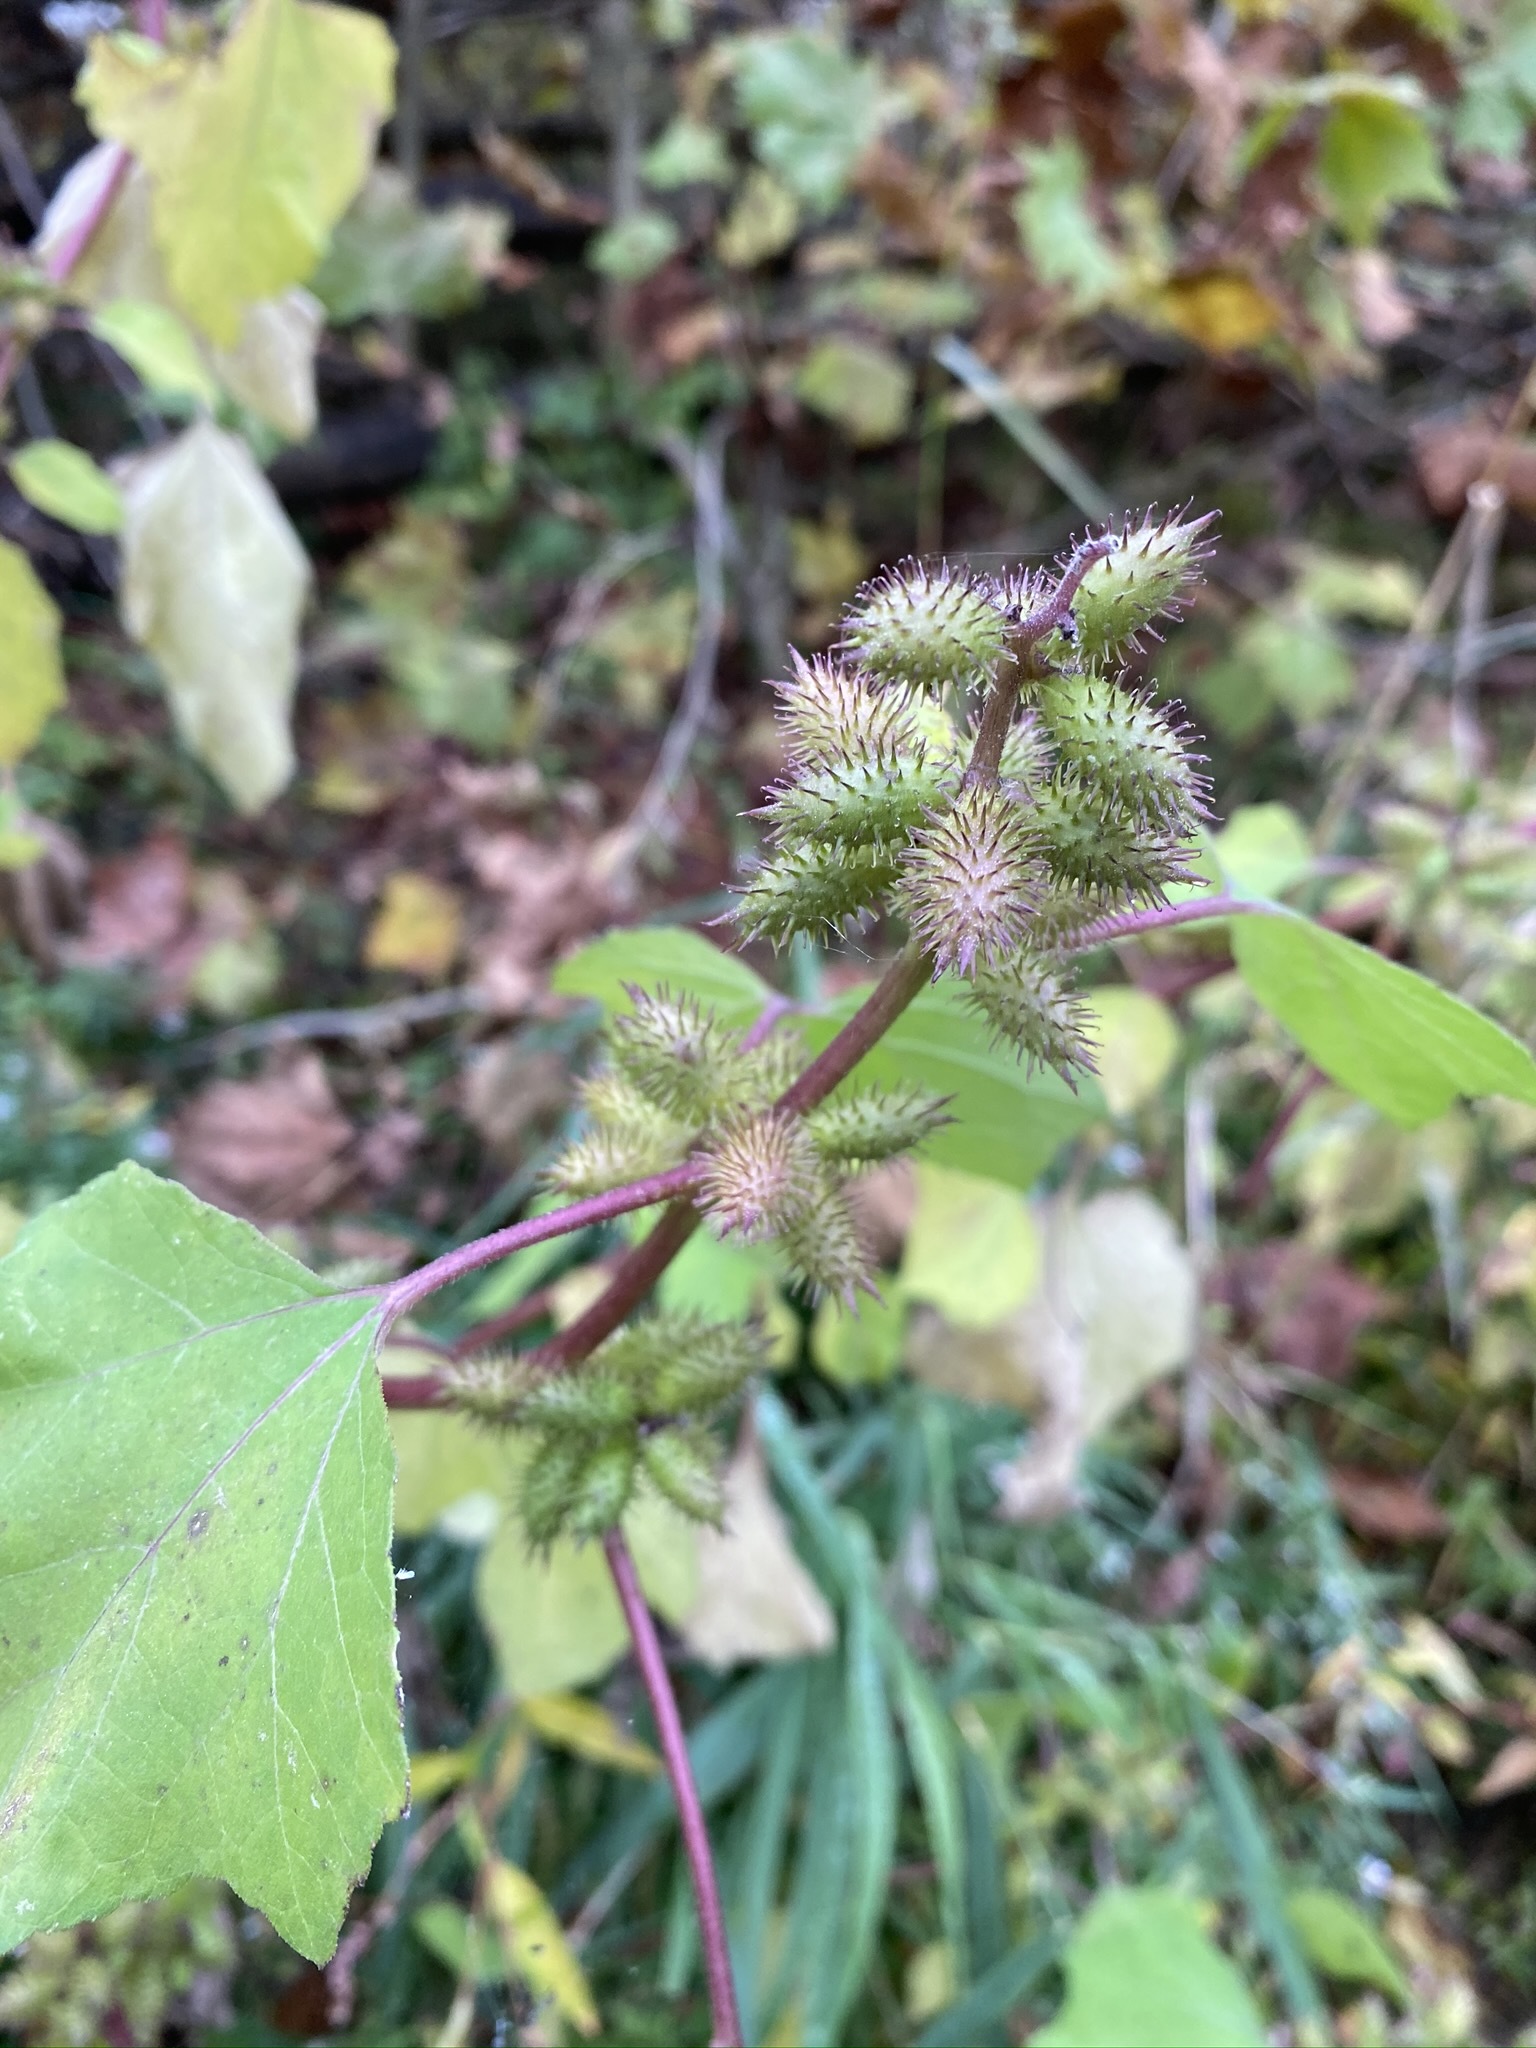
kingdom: Plantae
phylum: Tracheophyta
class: Magnoliopsida
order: Asterales
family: Asteraceae
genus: Xanthium
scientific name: Xanthium strumarium
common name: Rough cocklebur
